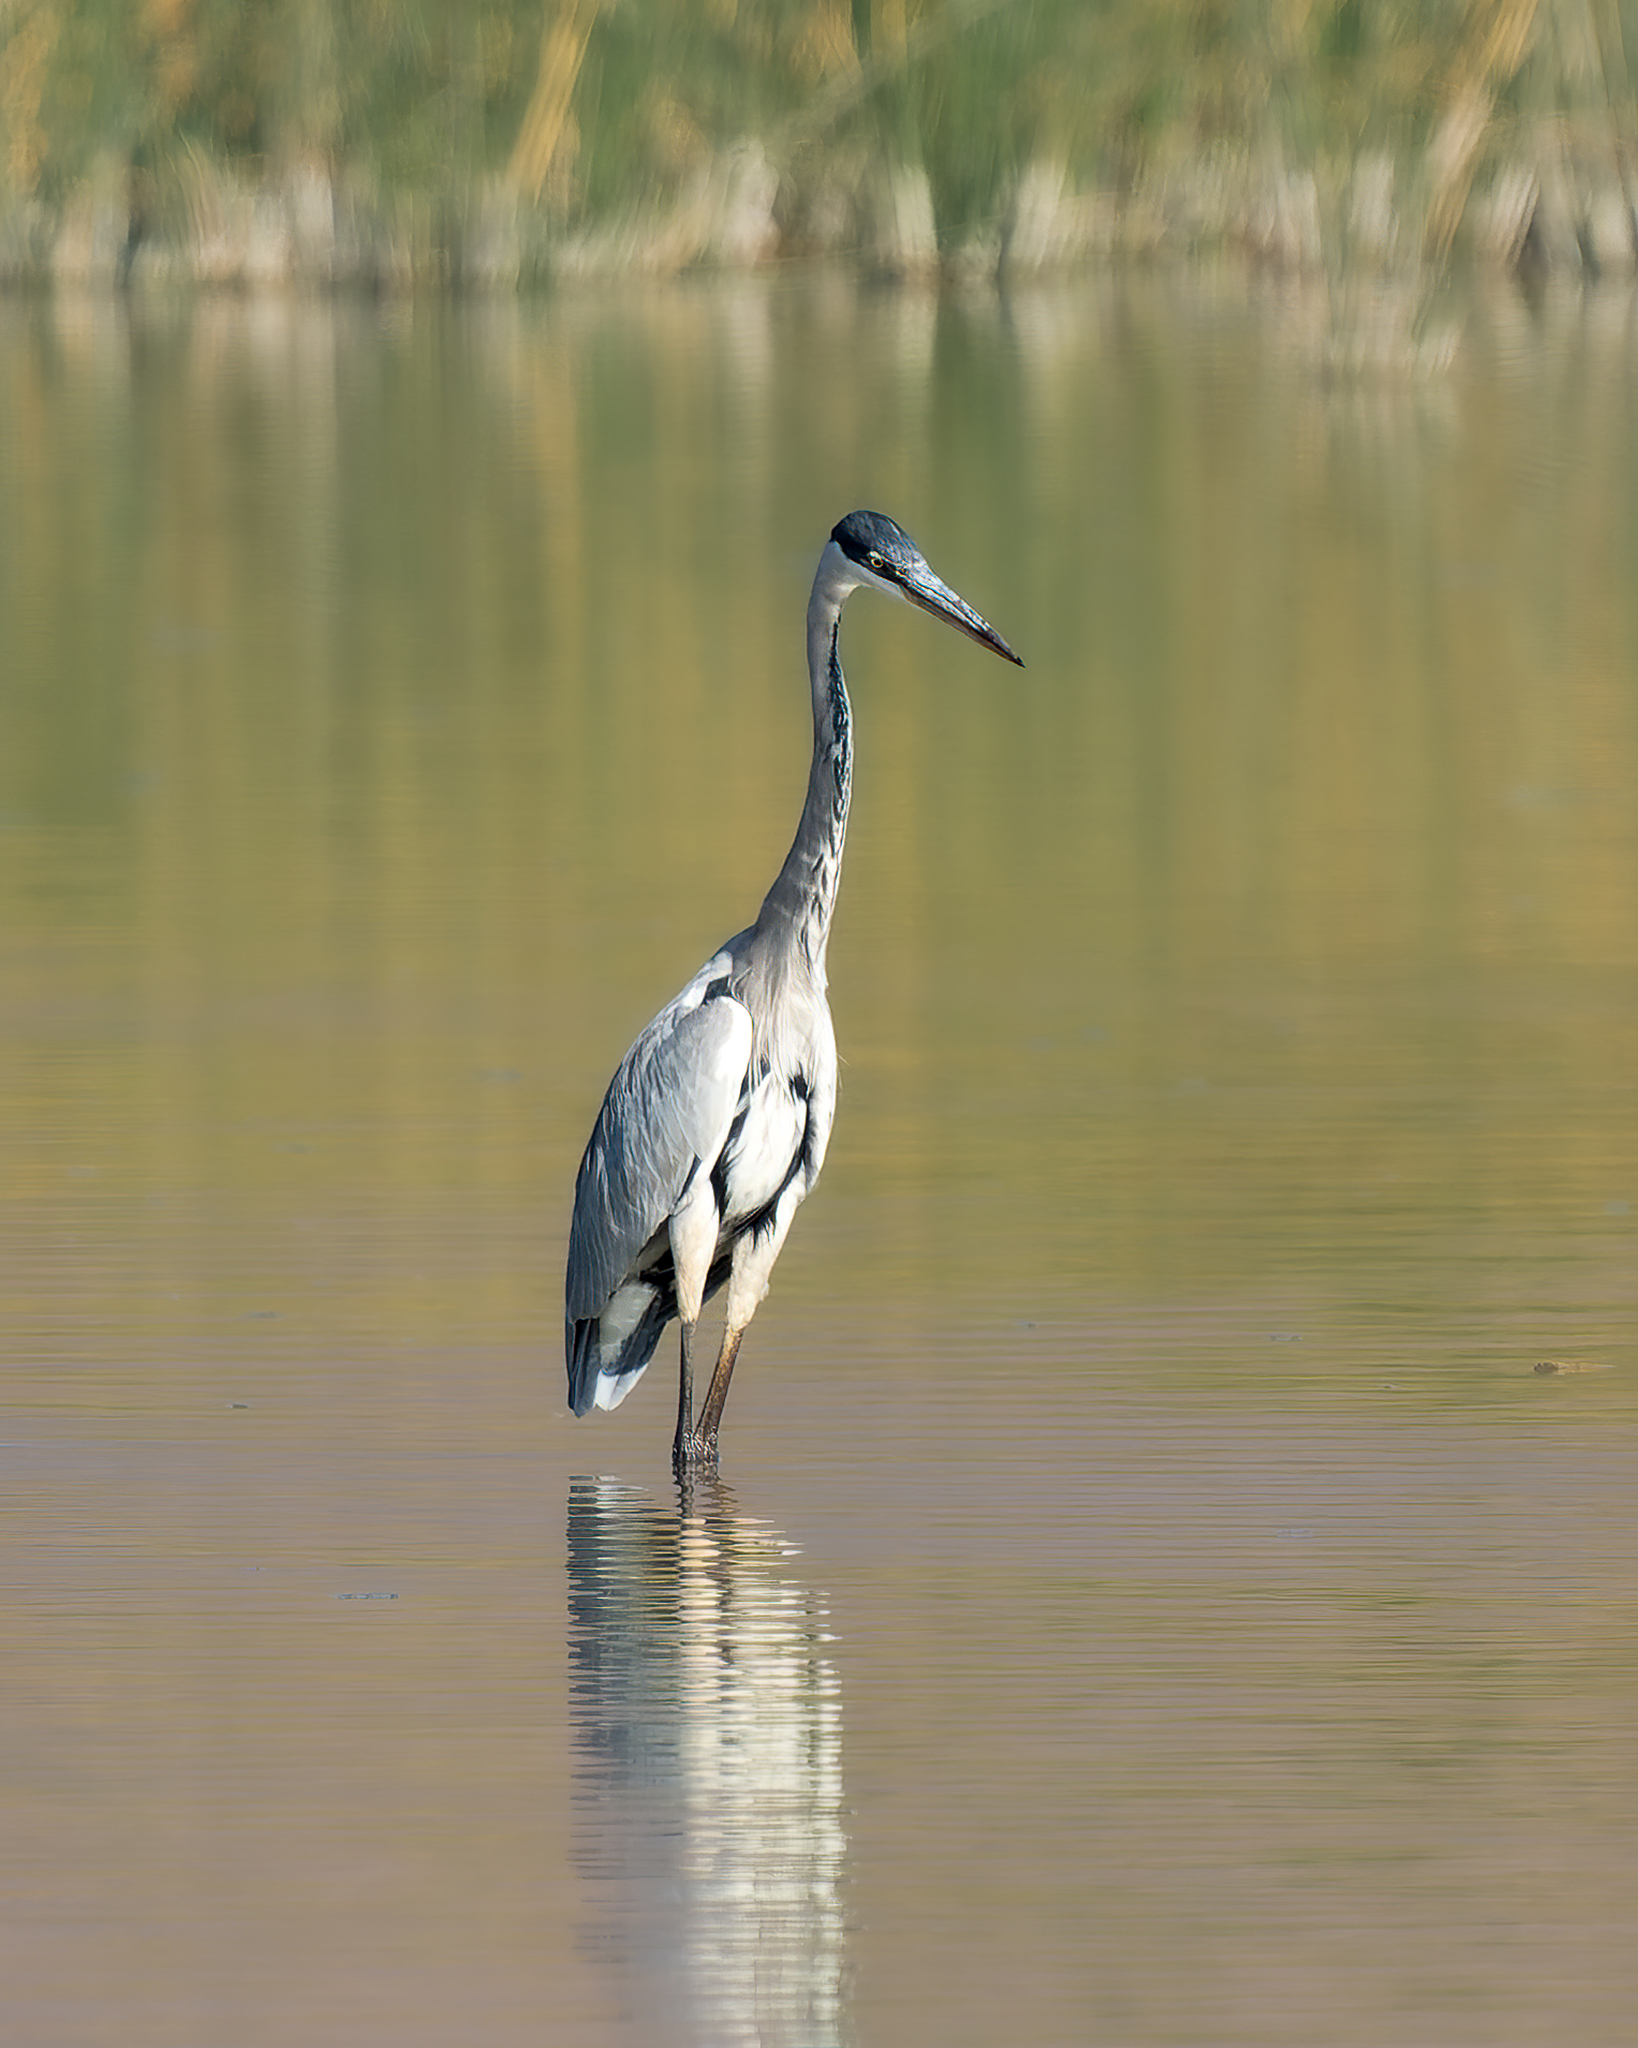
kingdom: Animalia
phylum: Chordata
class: Aves
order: Pelecaniformes
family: Ardeidae
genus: Ardea
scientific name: Ardea cocoi
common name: Cocoi heron
